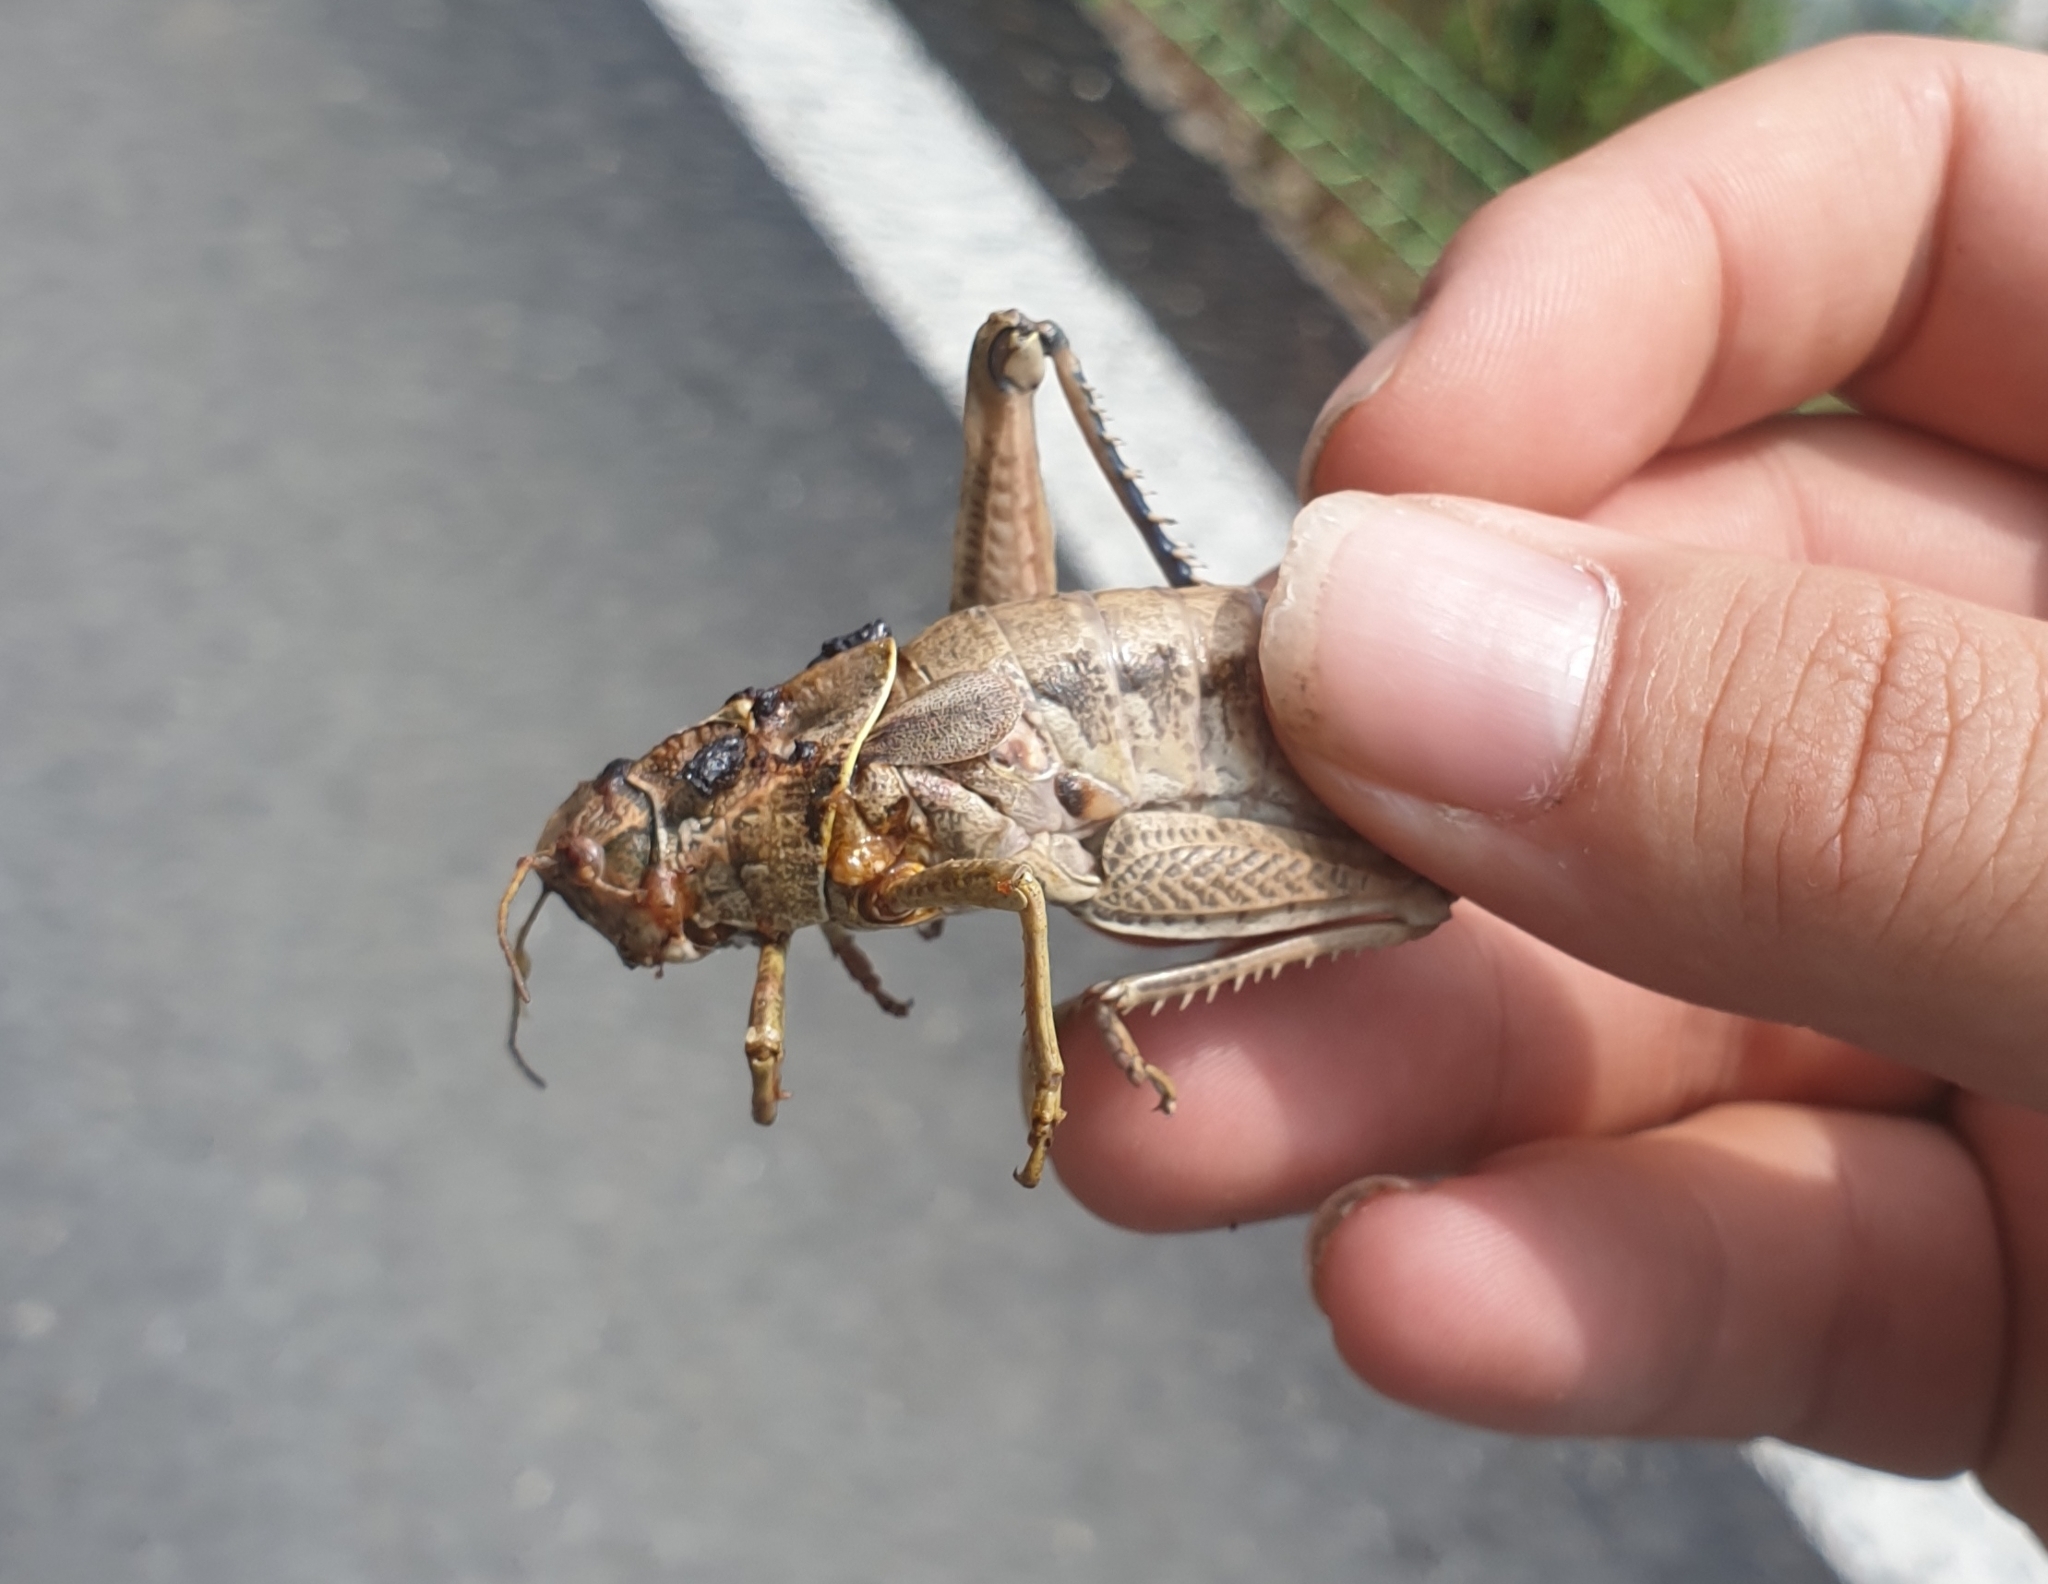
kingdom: Animalia
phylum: Arthropoda
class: Insecta
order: Orthoptera
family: Pamphagidae
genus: Haplotropis
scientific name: Haplotropis brunneriana
